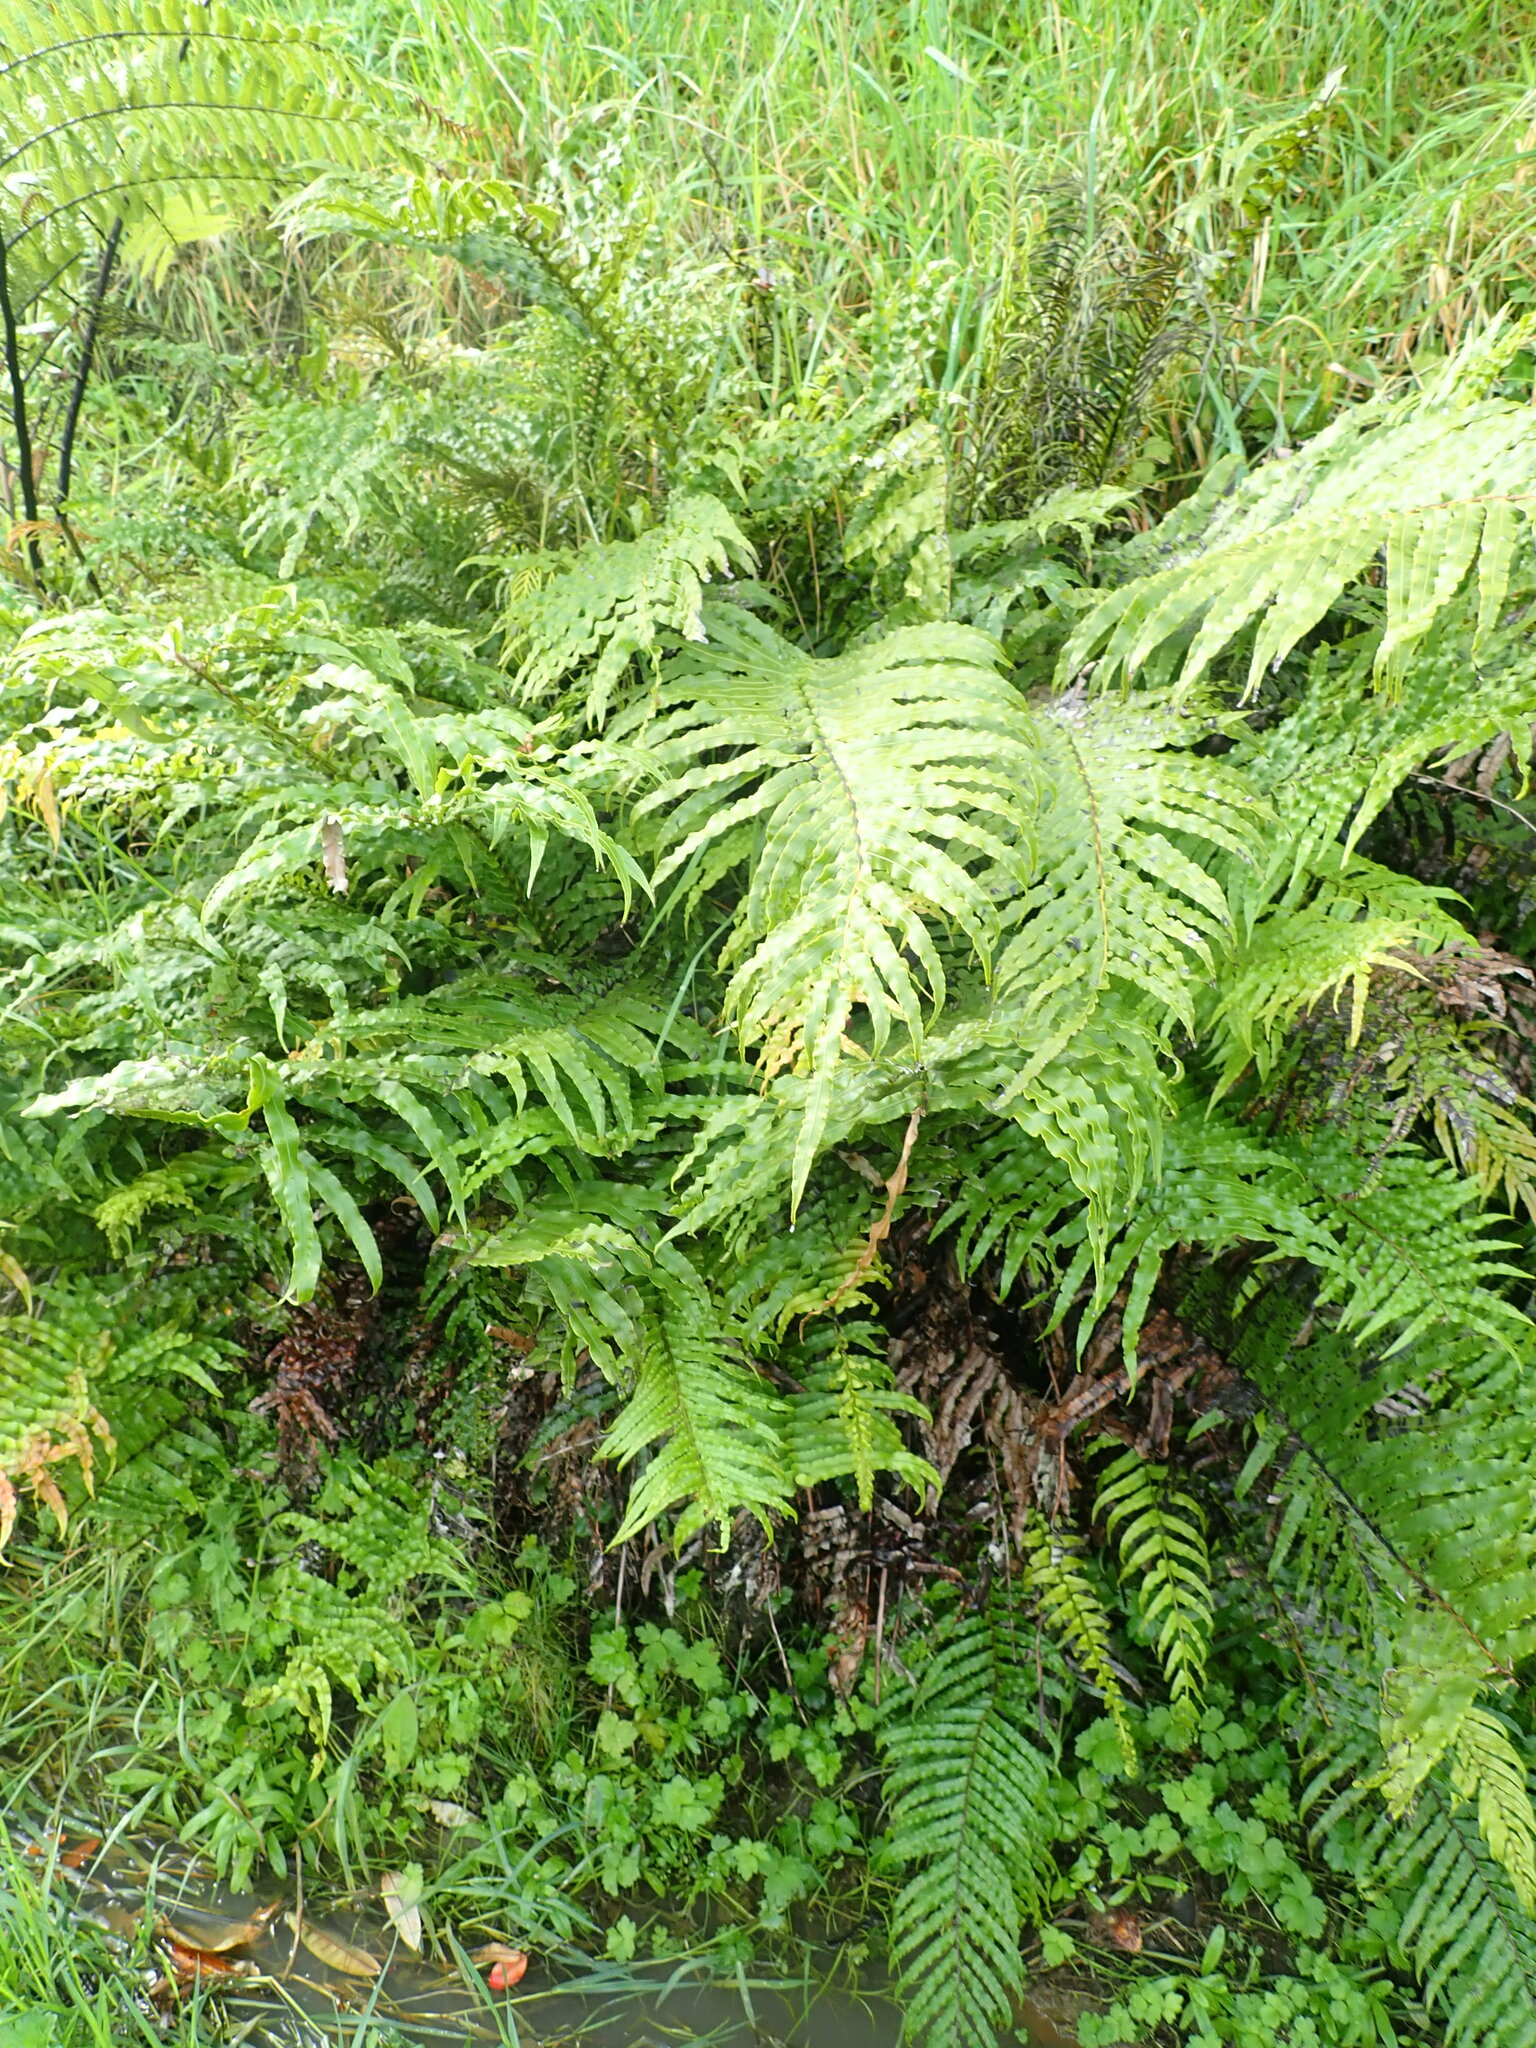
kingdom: Plantae
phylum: Tracheophyta
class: Polypodiopsida
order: Polypodiales
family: Blechnaceae
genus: Parablechnum
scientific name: Parablechnum novae-zelandiae
